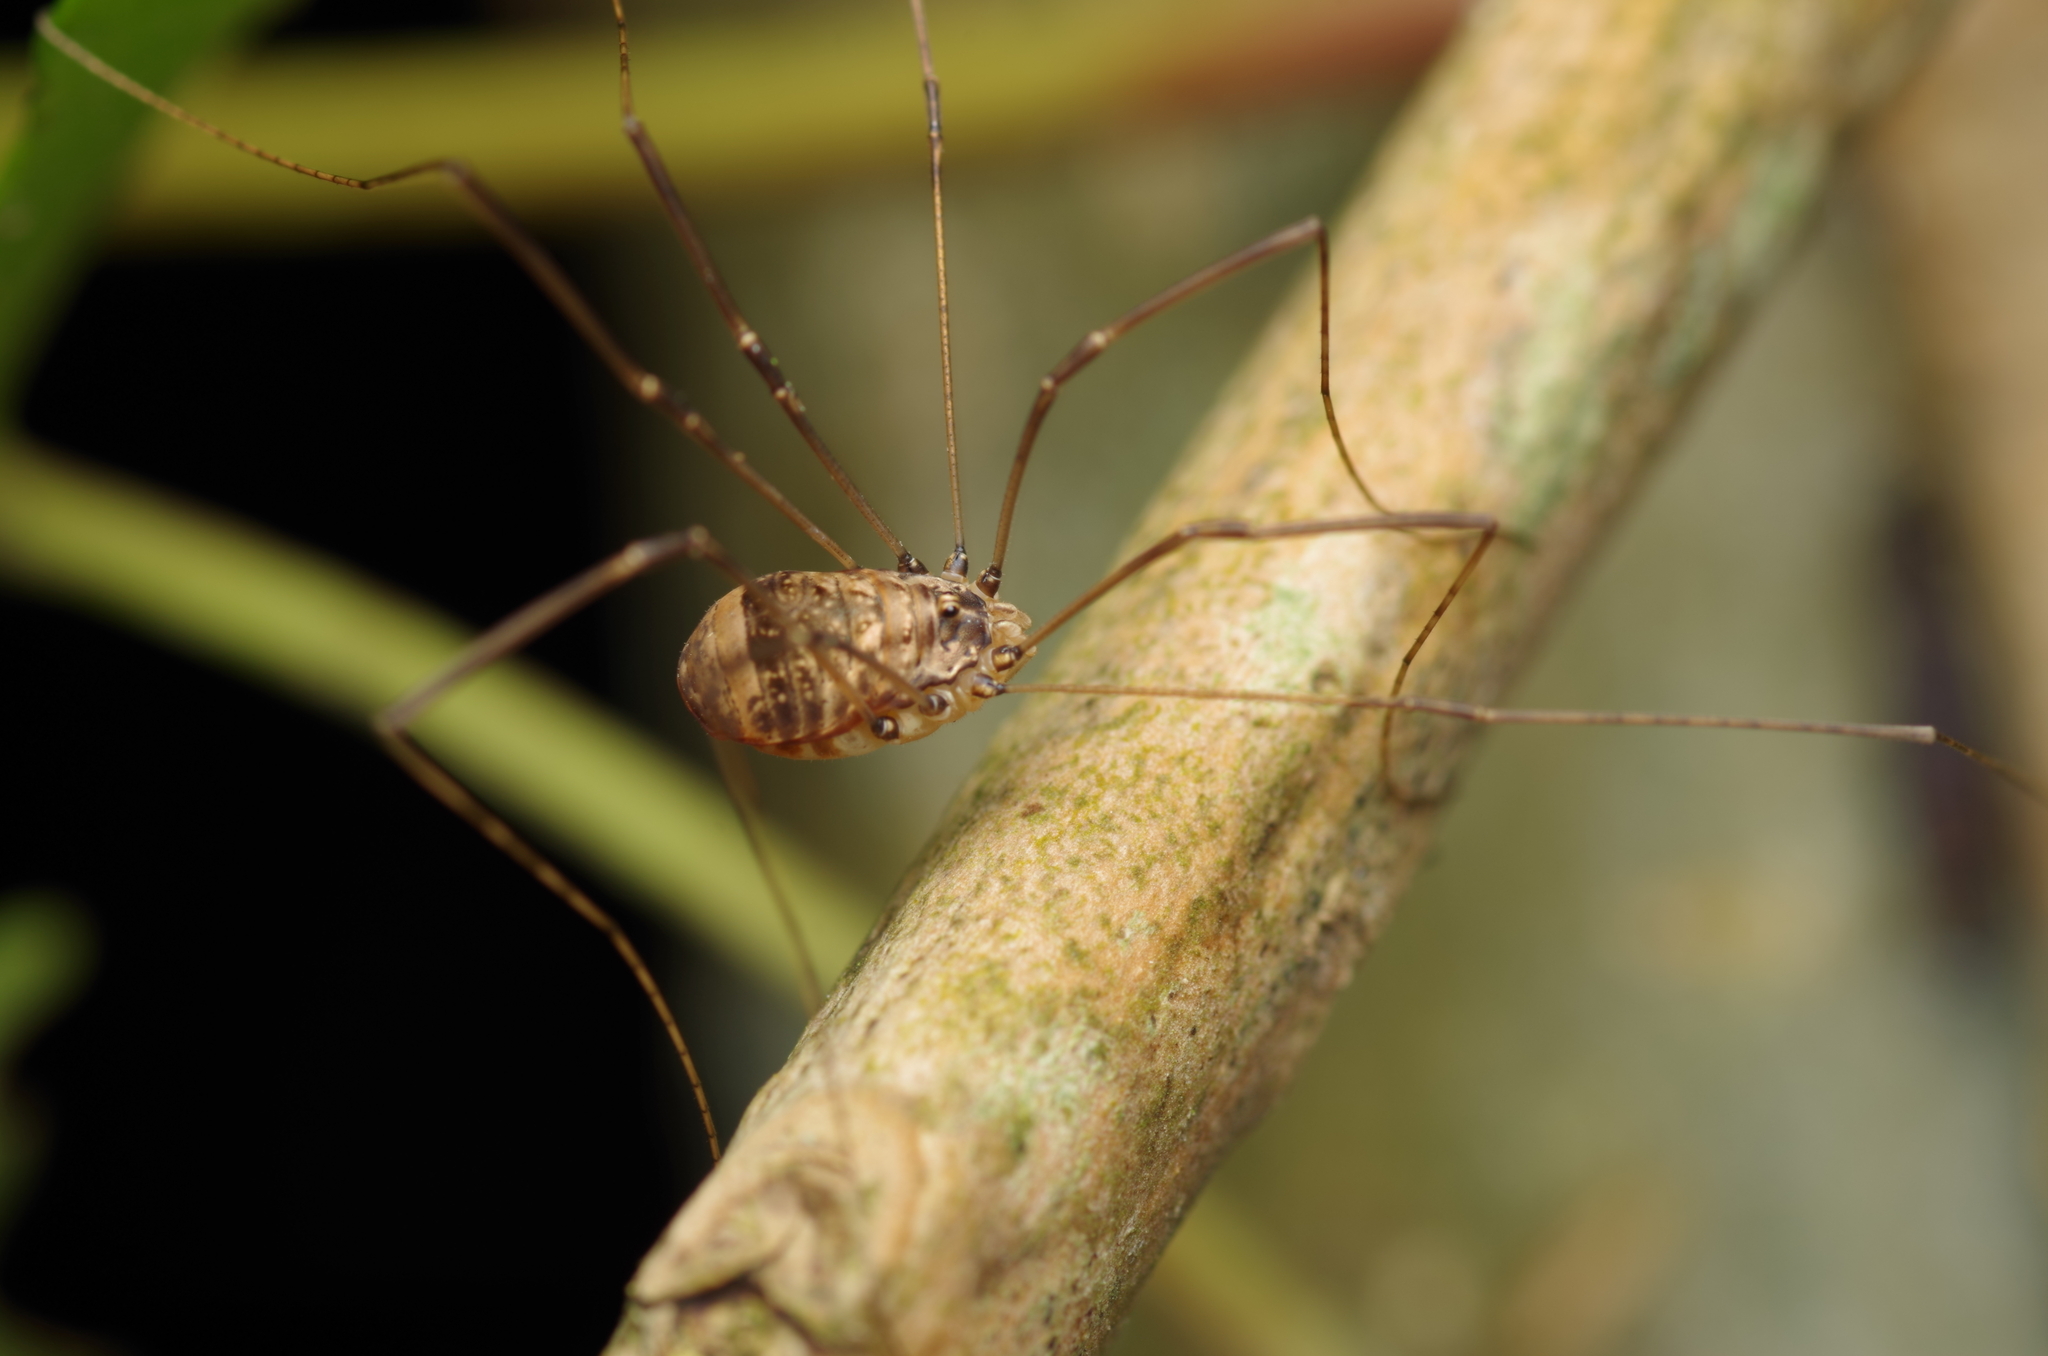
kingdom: Animalia
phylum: Arthropoda
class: Arachnida
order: Opiliones
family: Sclerosomatidae
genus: Leiobunum
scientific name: Leiobunum blackwalli
